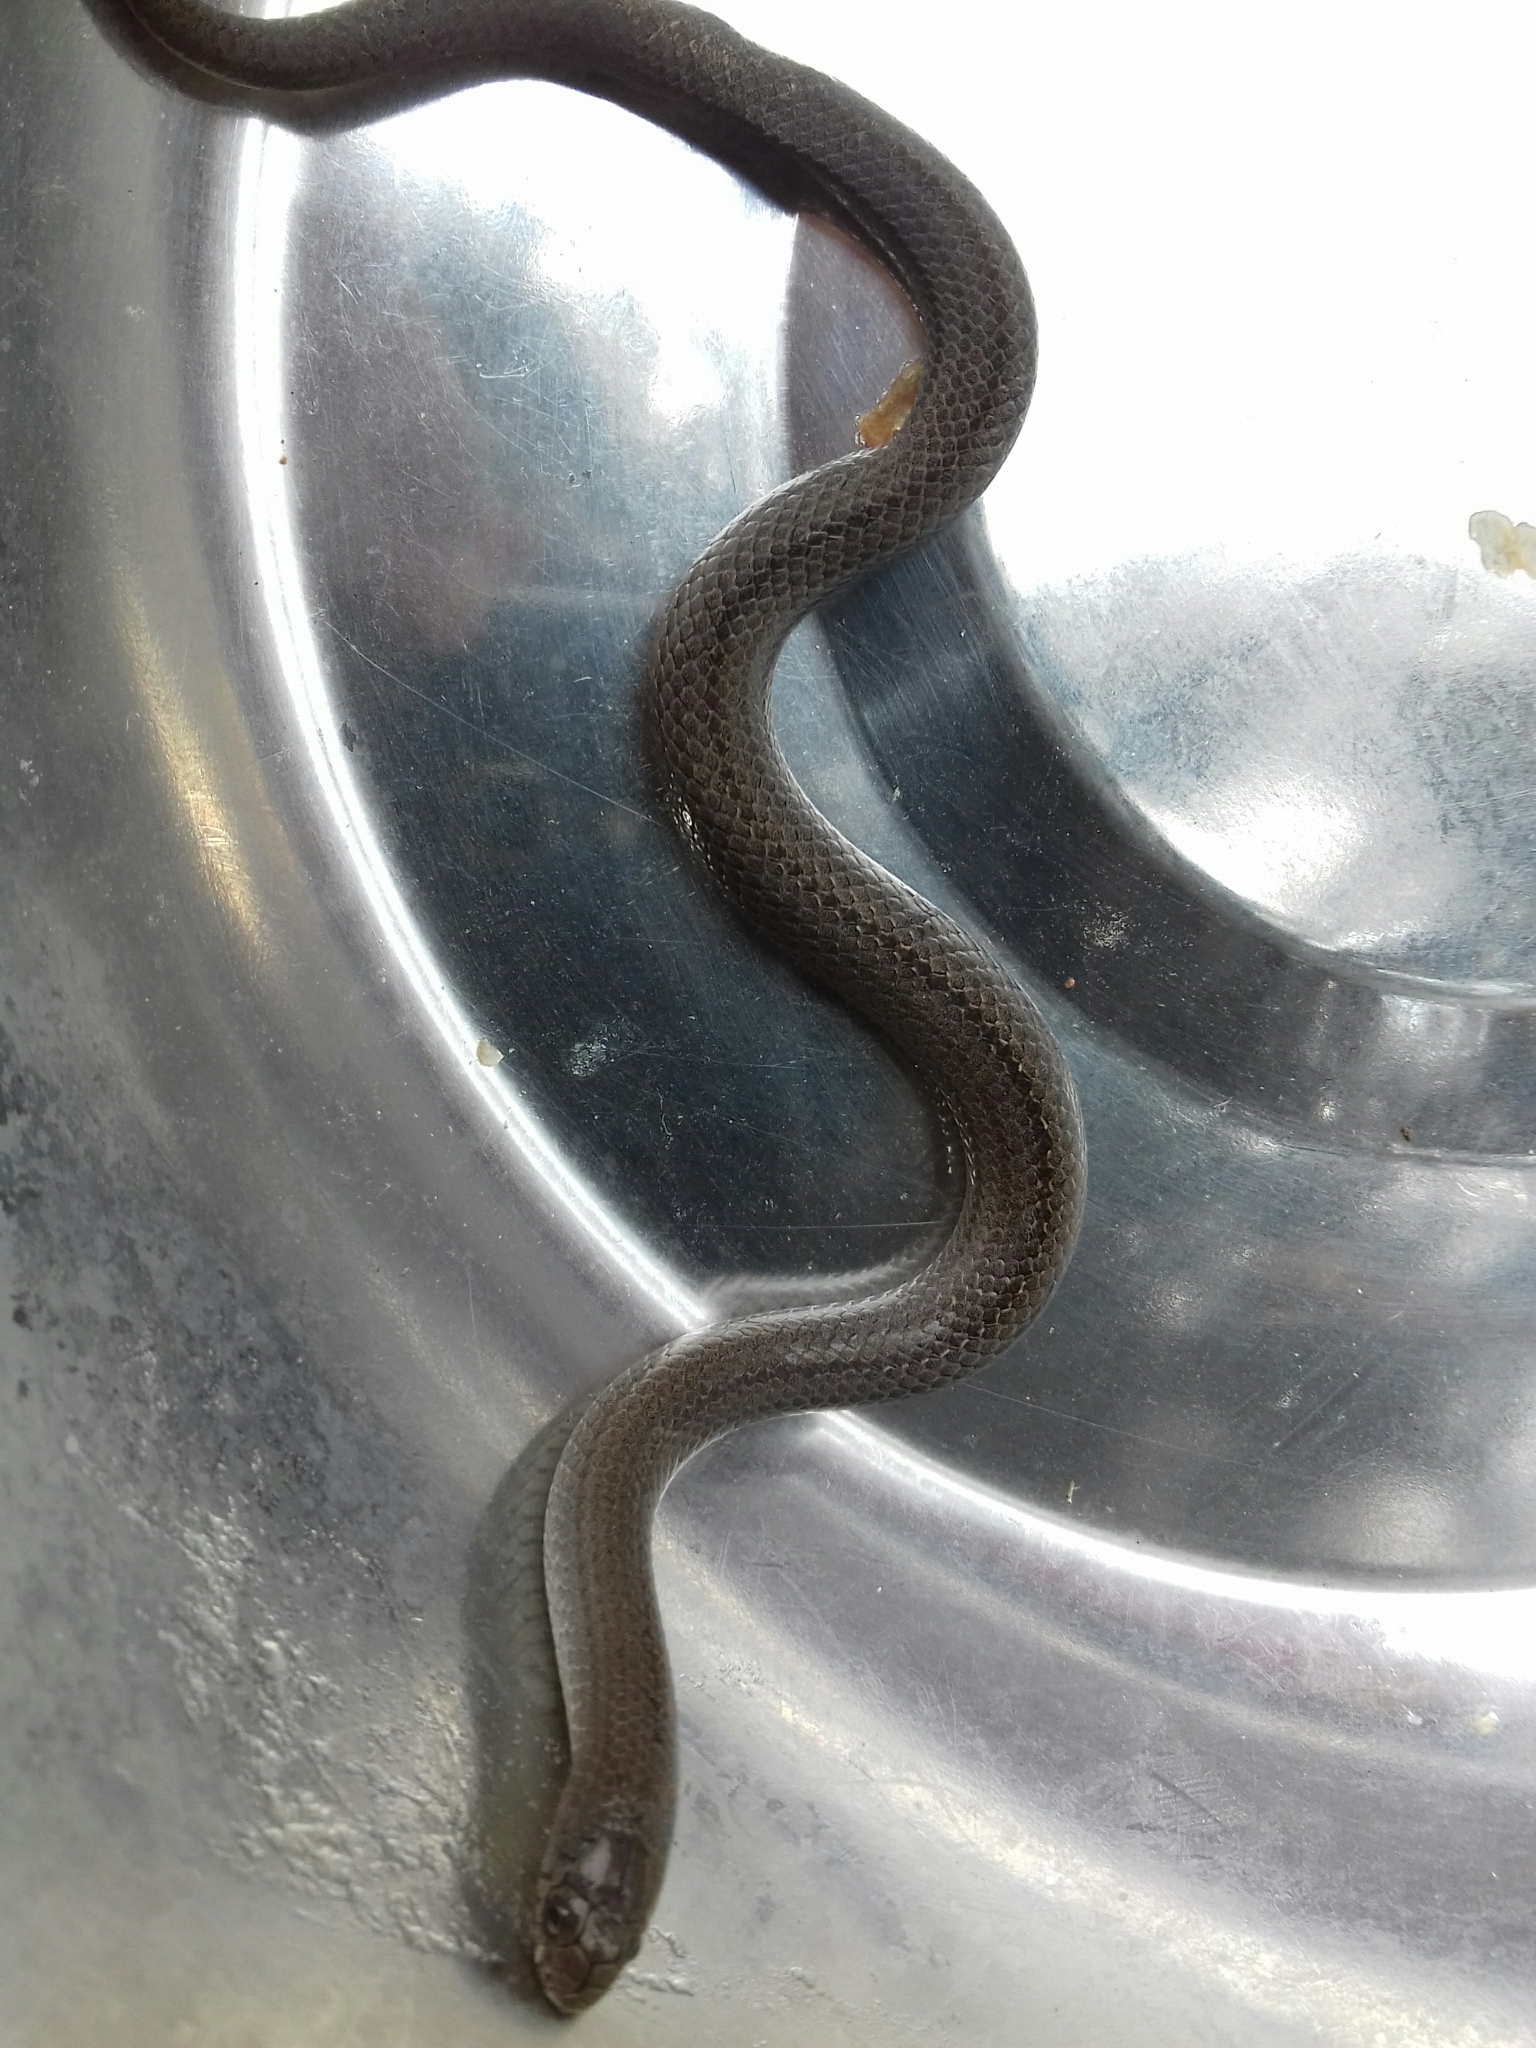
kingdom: Animalia
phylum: Chordata
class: Squamata
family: Colubridae
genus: Conopsis
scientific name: Conopsis lineata
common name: Lined tolucan earthsnake
